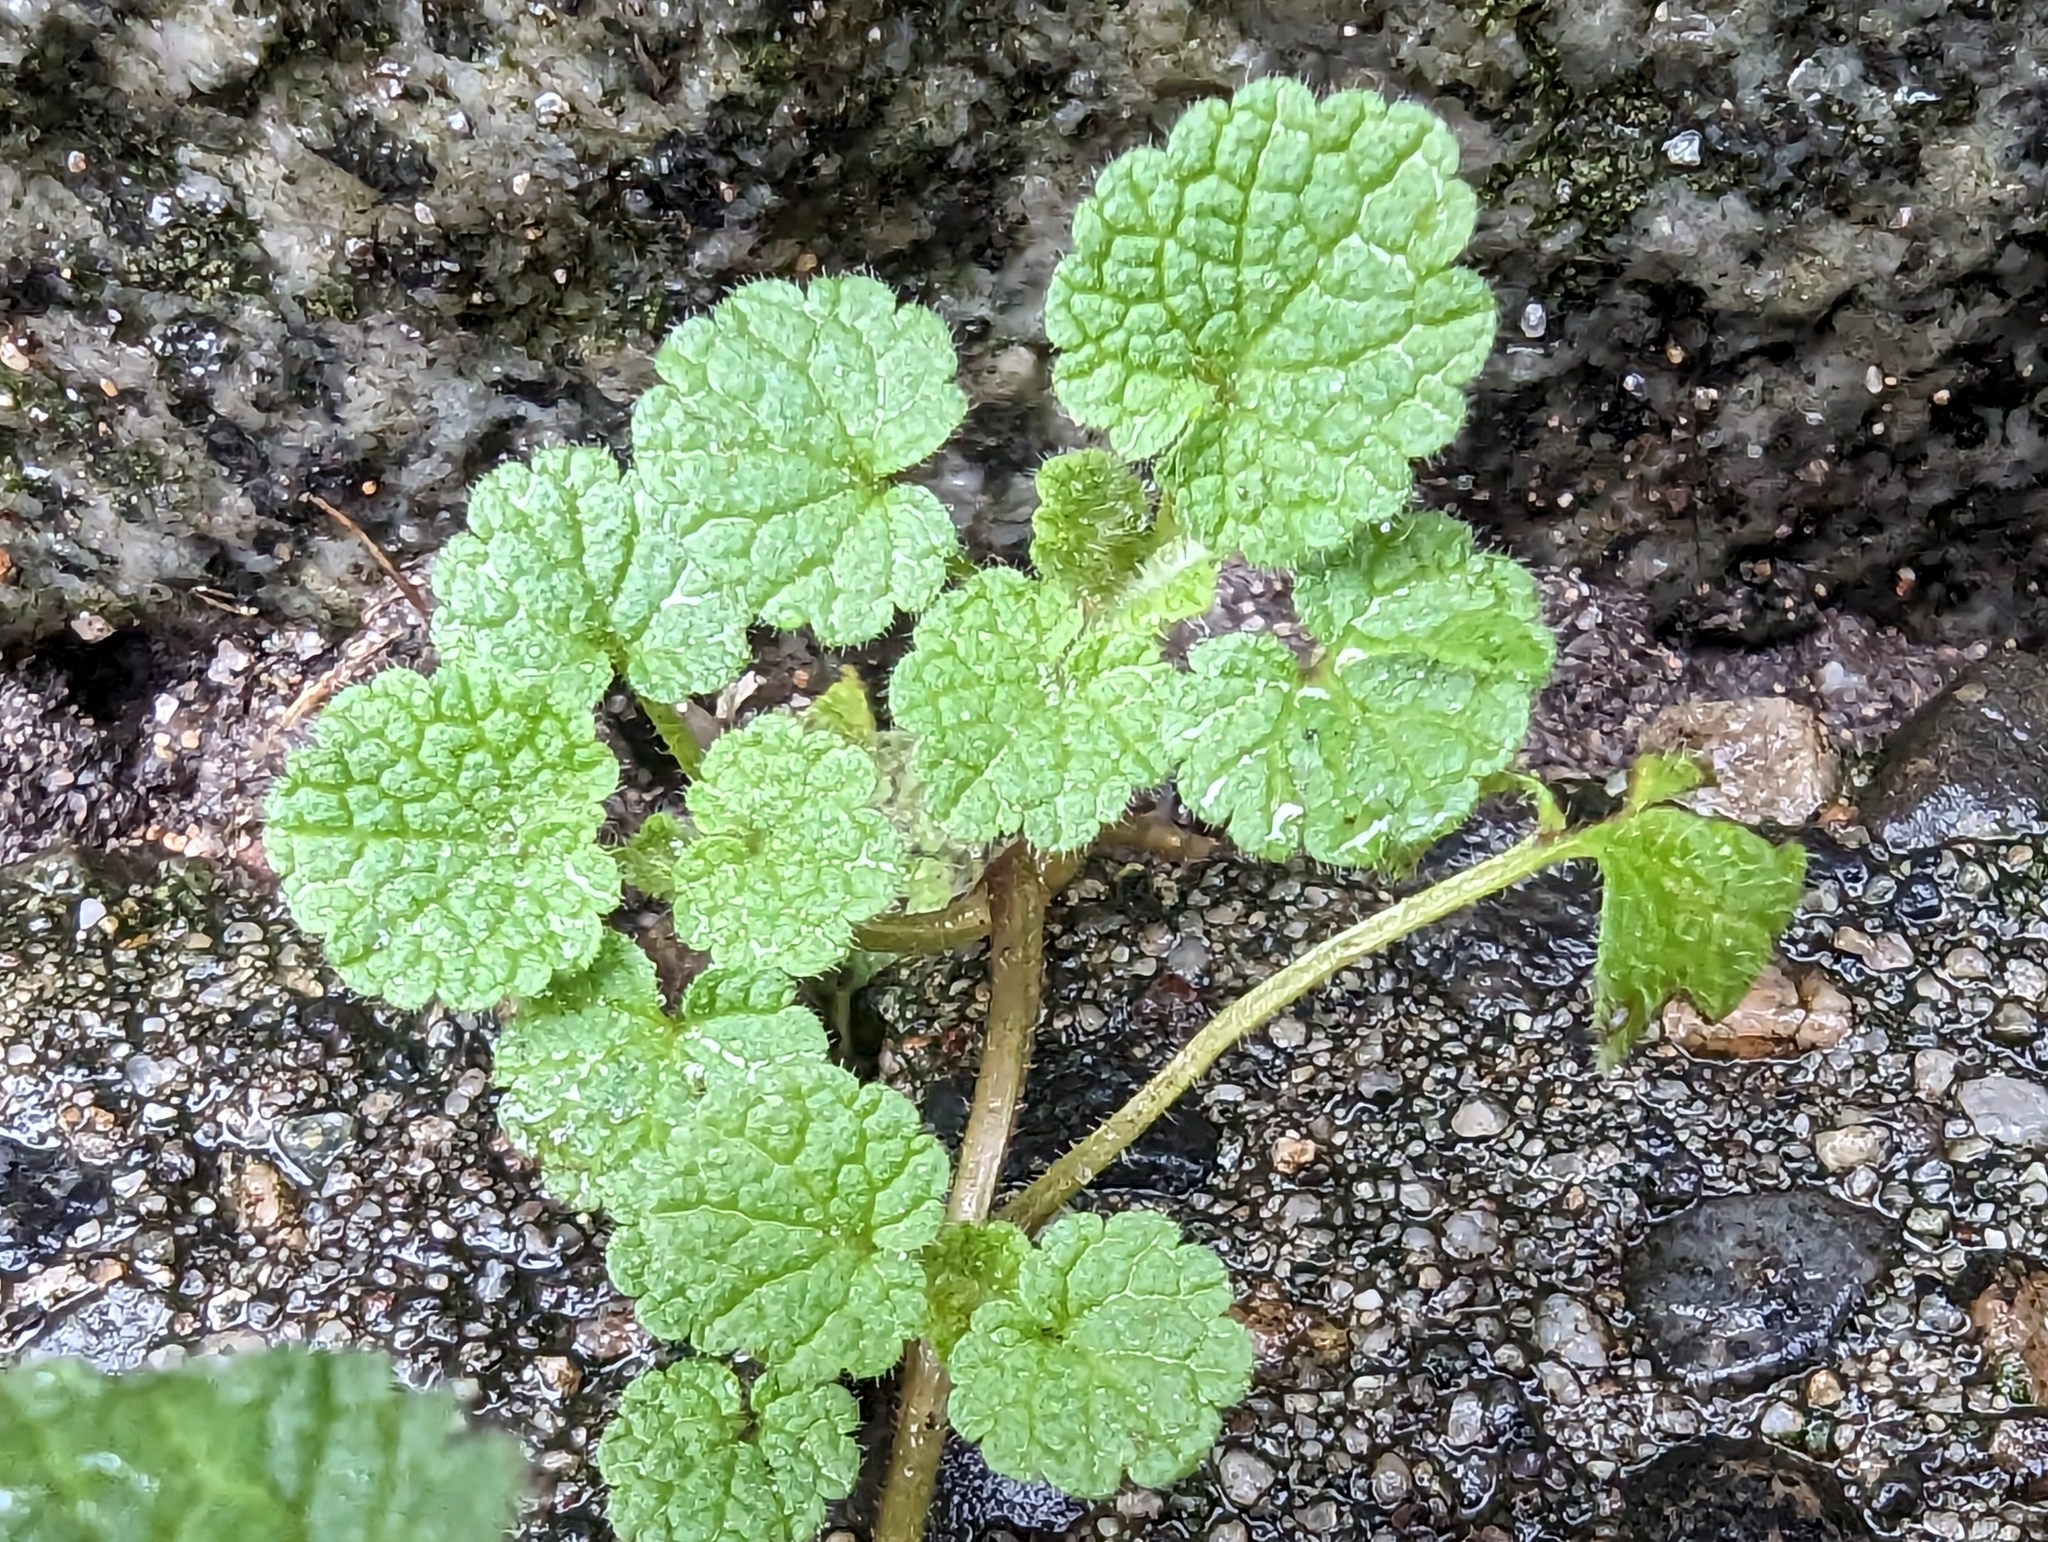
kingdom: Plantae
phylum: Tracheophyta
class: Magnoliopsida
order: Lamiales
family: Lamiaceae
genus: Lamium
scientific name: Lamium purpureum
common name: Red dead-nettle
